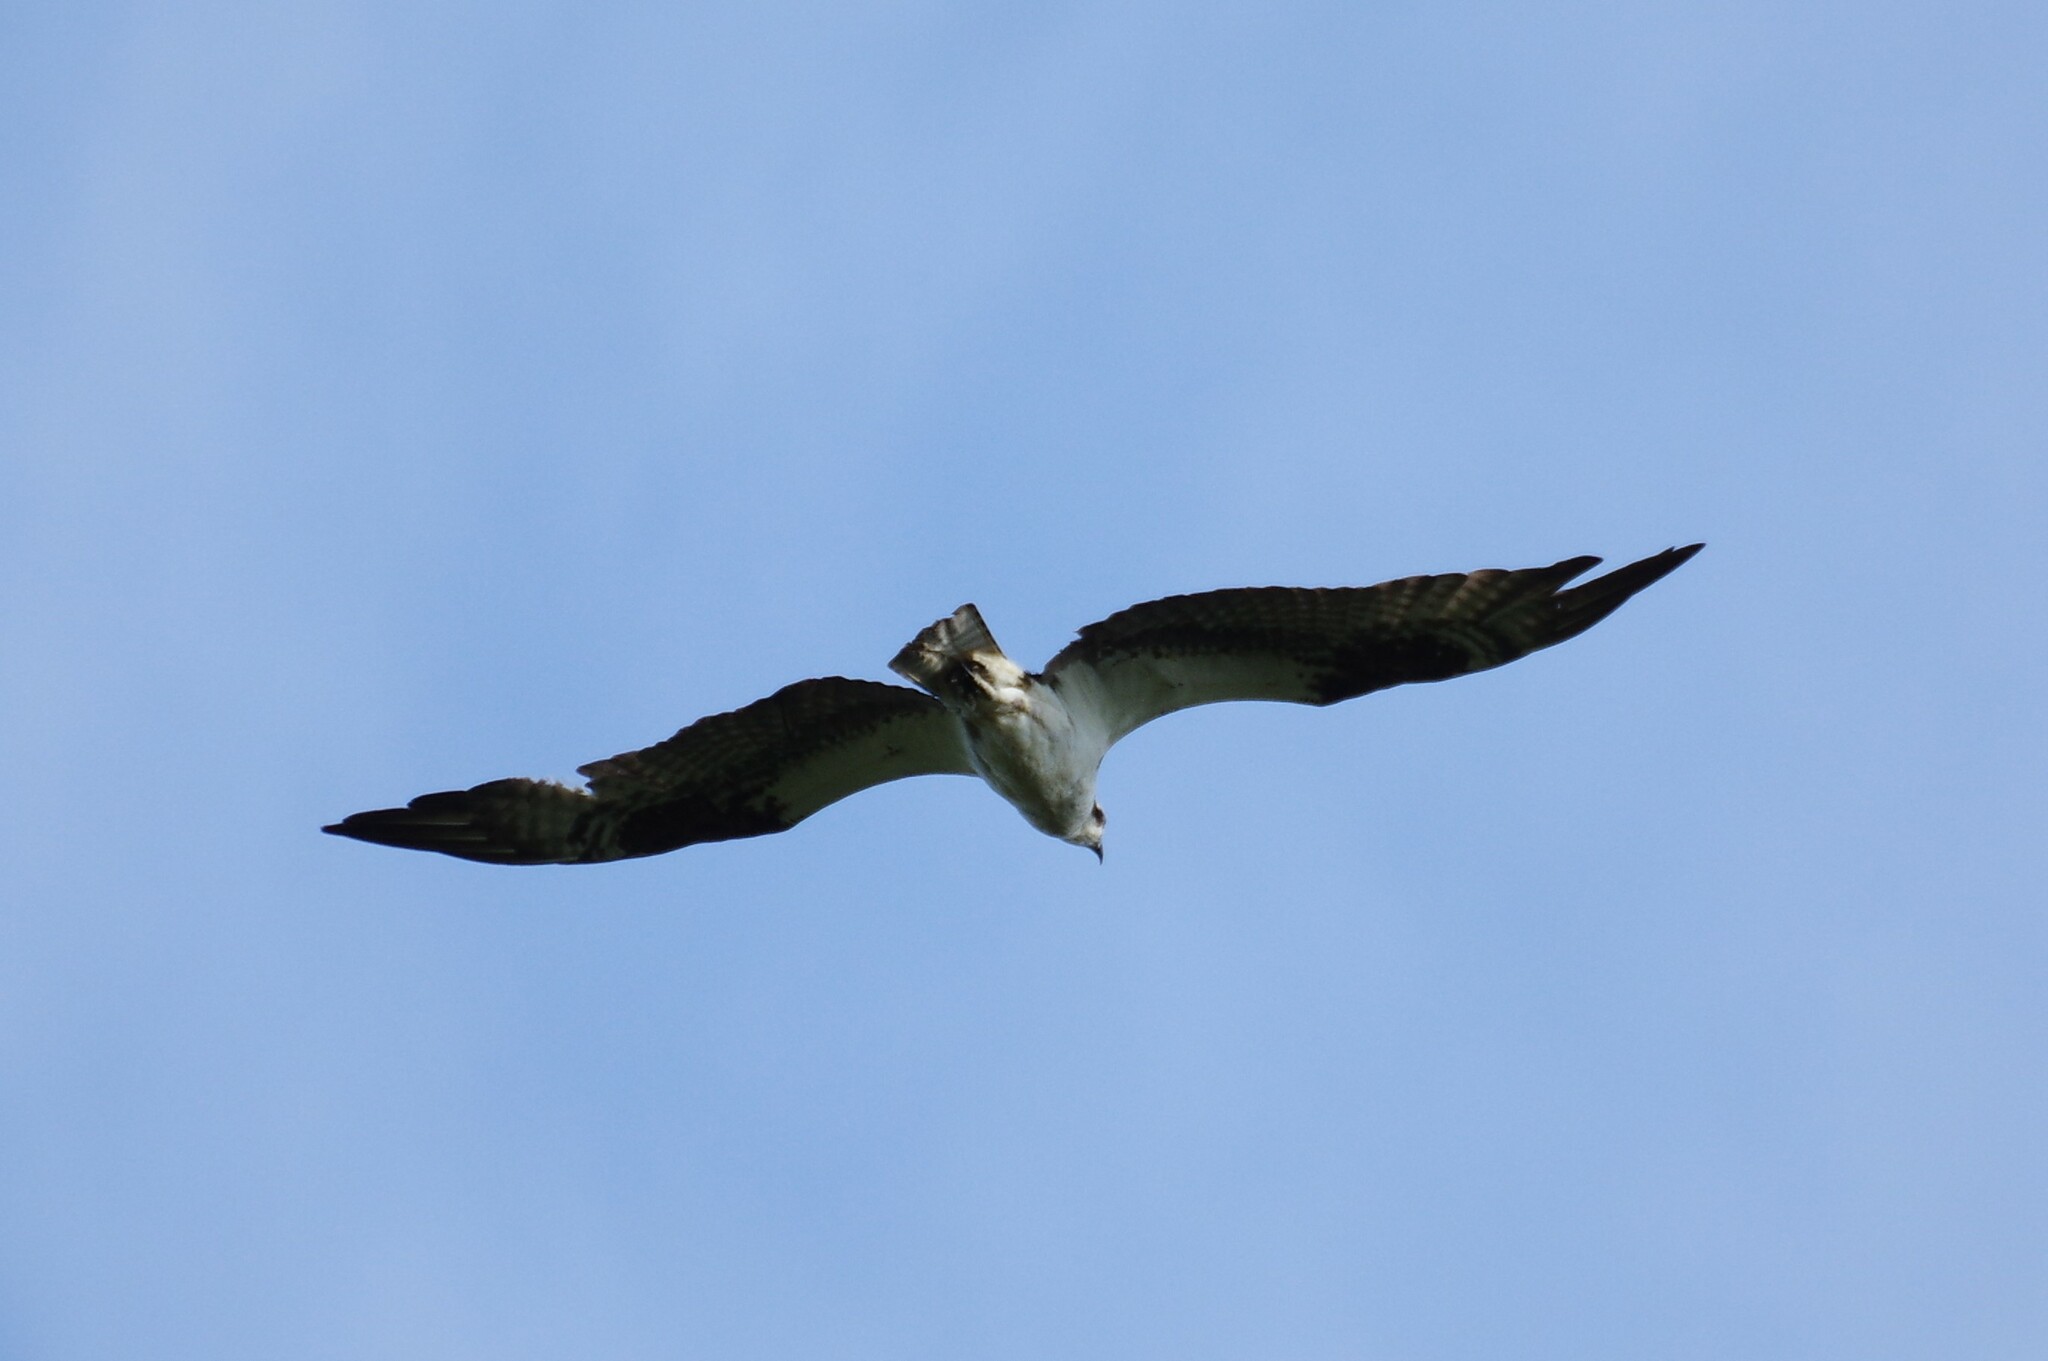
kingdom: Animalia
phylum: Chordata
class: Aves
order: Accipitriformes
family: Pandionidae
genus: Pandion
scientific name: Pandion haliaetus
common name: Osprey
